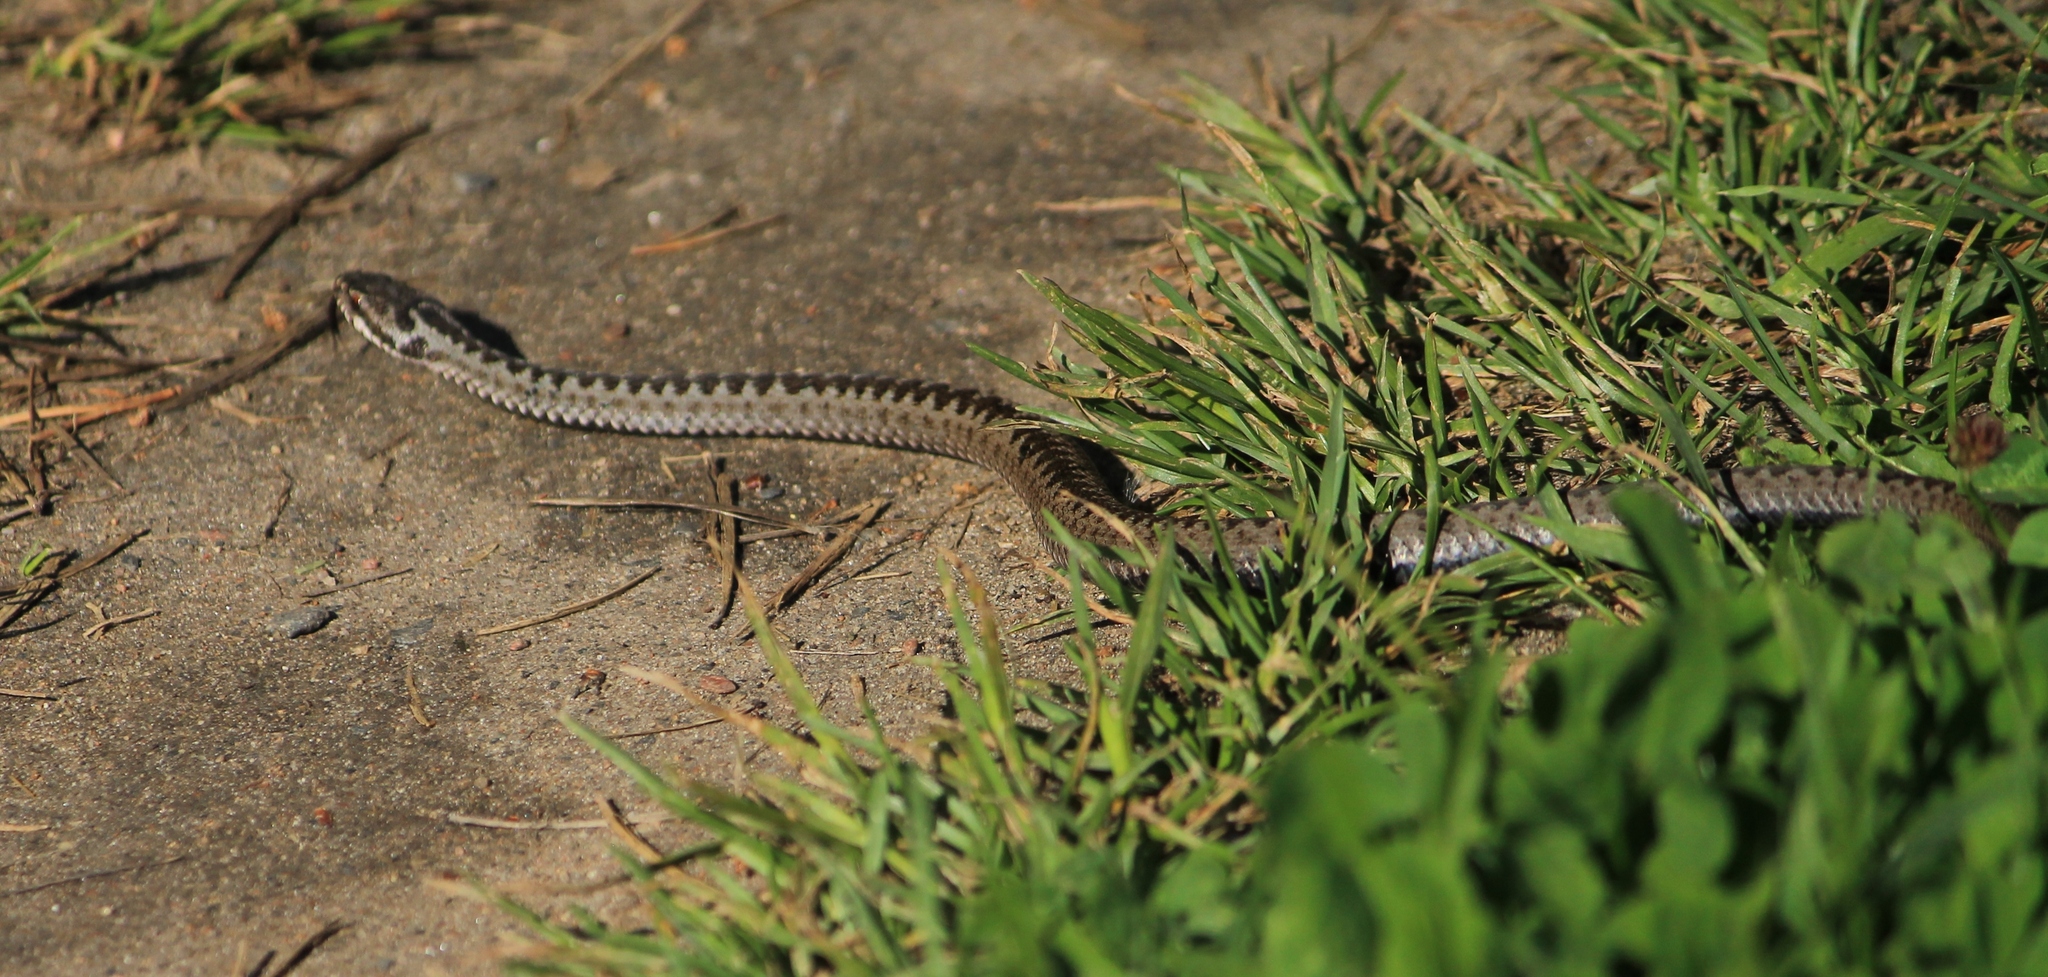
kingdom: Animalia
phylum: Chordata
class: Squamata
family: Viperidae
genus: Vipera
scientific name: Vipera berus
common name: Adder
